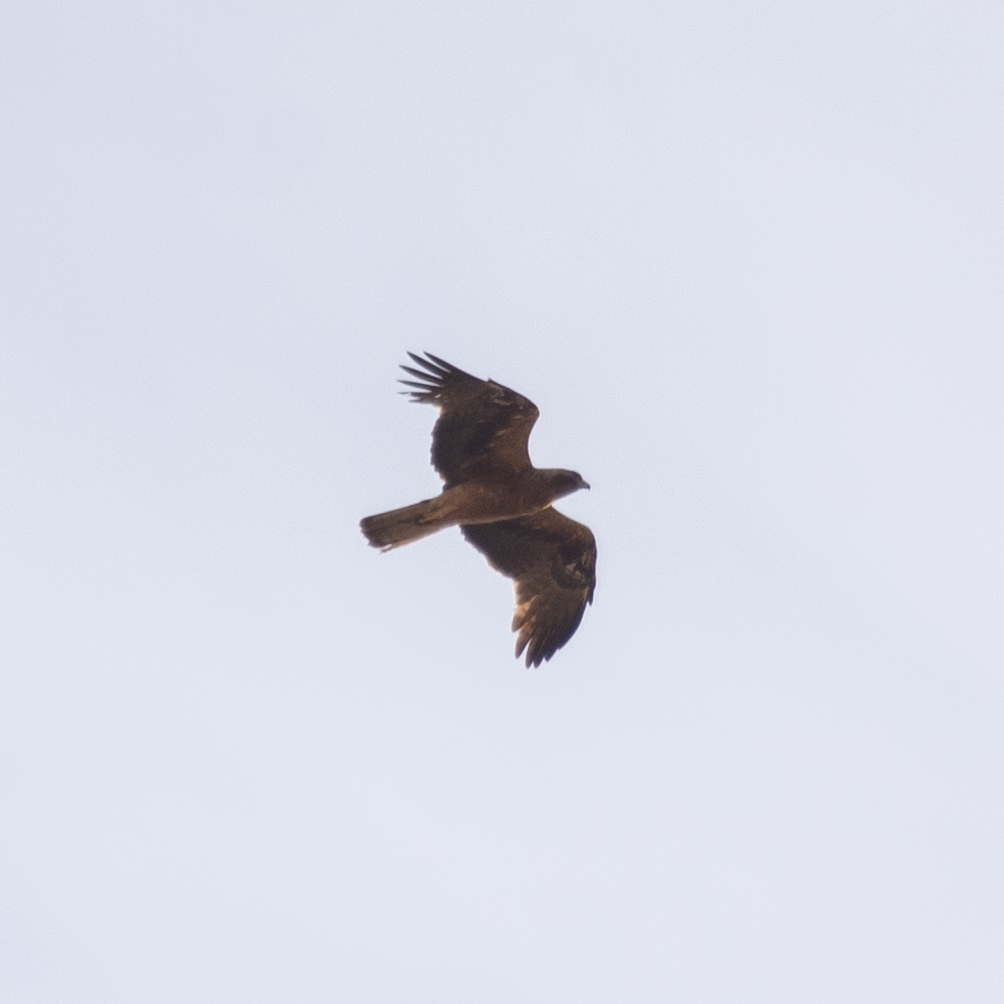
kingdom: Animalia
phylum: Chordata
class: Aves
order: Accipitriformes
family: Accipitridae
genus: Hieraaetus
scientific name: Hieraaetus pennatus
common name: Booted eagle
